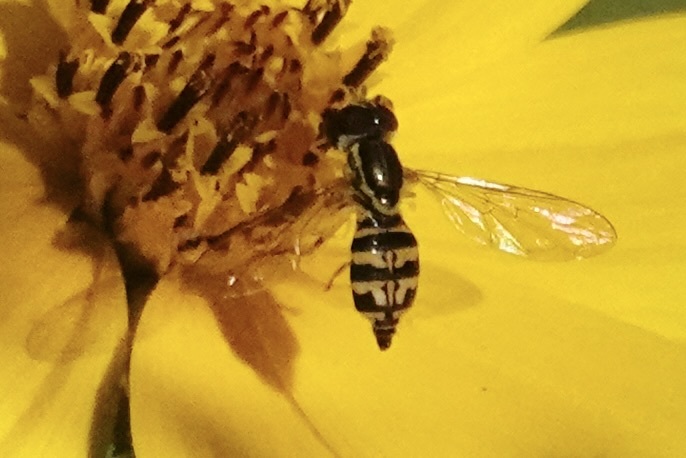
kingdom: Animalia
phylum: Arthropoda
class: Insecta
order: Diptera
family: Syrphidae
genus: Toxomerus
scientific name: Toxomerus geminatus
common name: Eastern calligrapher
